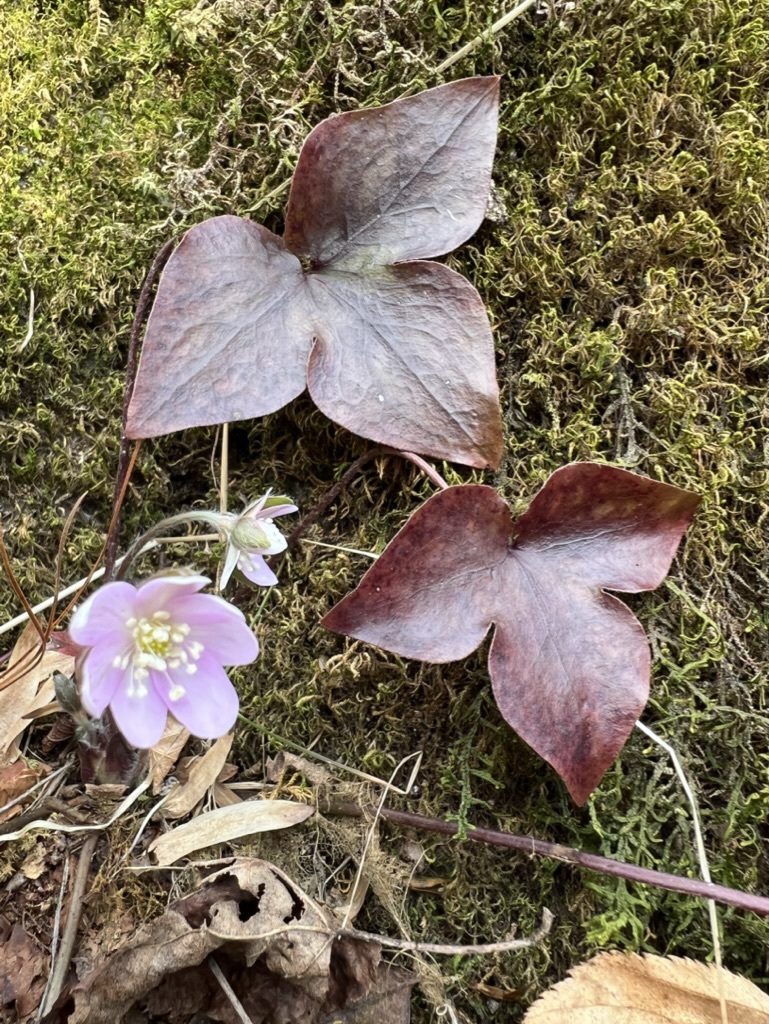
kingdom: Plantae
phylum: Tracheophyta
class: Magnoliopsida
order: Ranunculales
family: Ranunculaceae
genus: Hepatica
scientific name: Hepatica acutiloba
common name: Sharp-lobed hepatica
